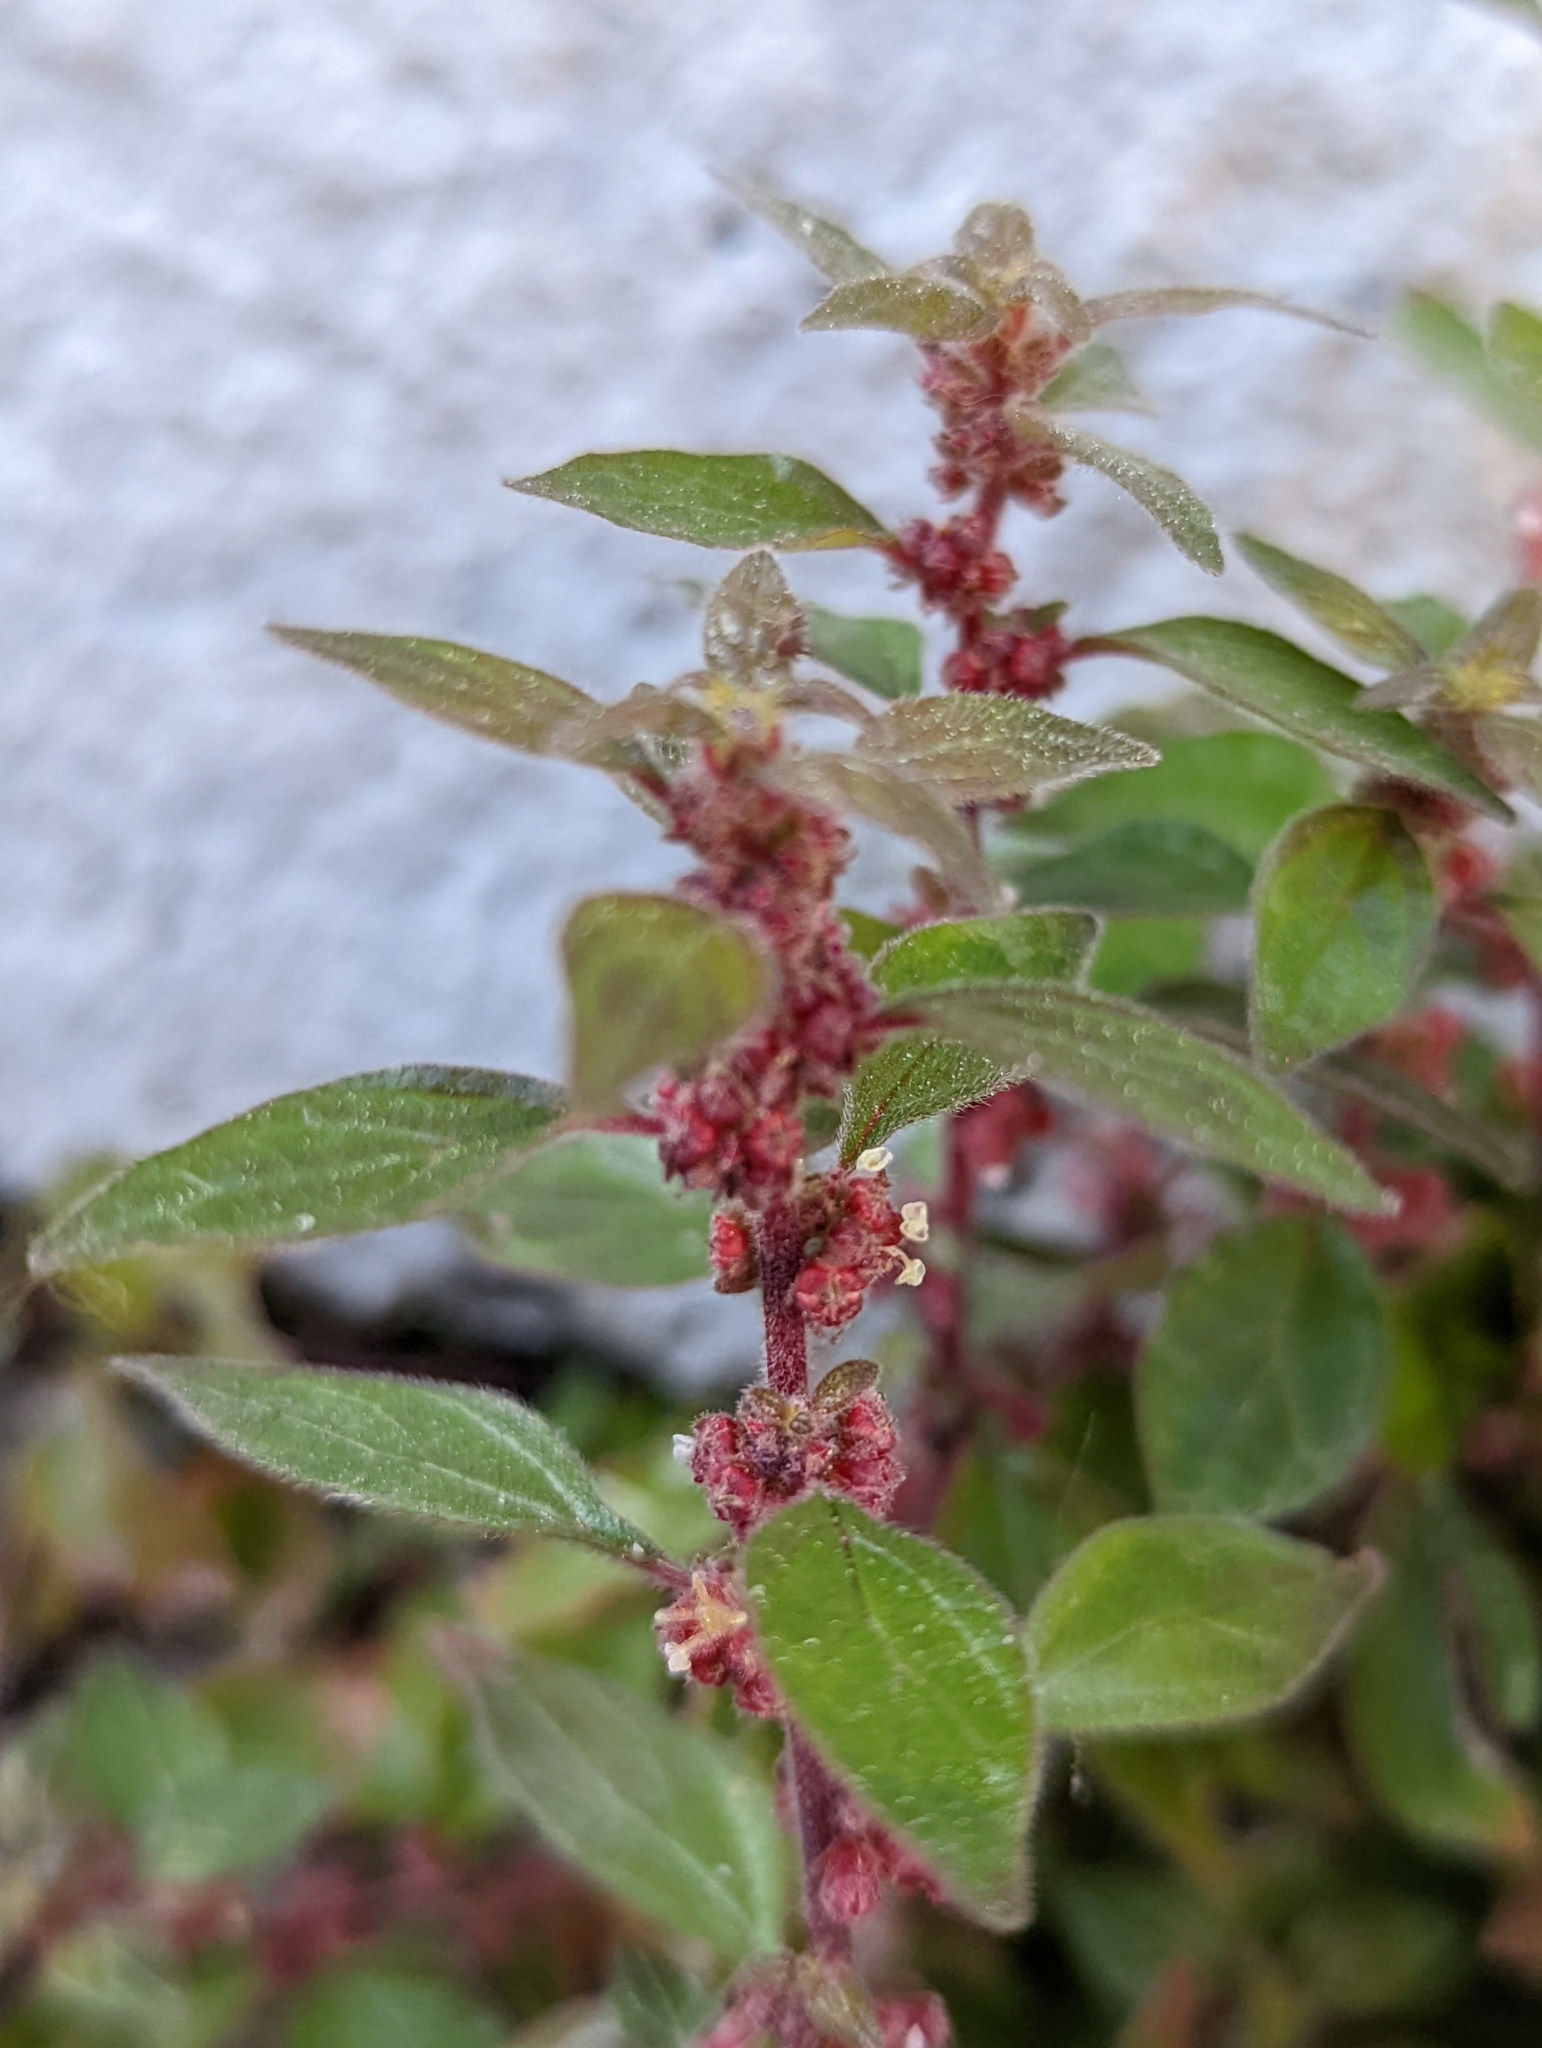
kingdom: Plantae
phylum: Tracheophyta
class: Magnoliopsida
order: Rosales
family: Urticaceae
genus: Parietaria
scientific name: Parietaria judaica
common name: Pellitory-of-the-wall
